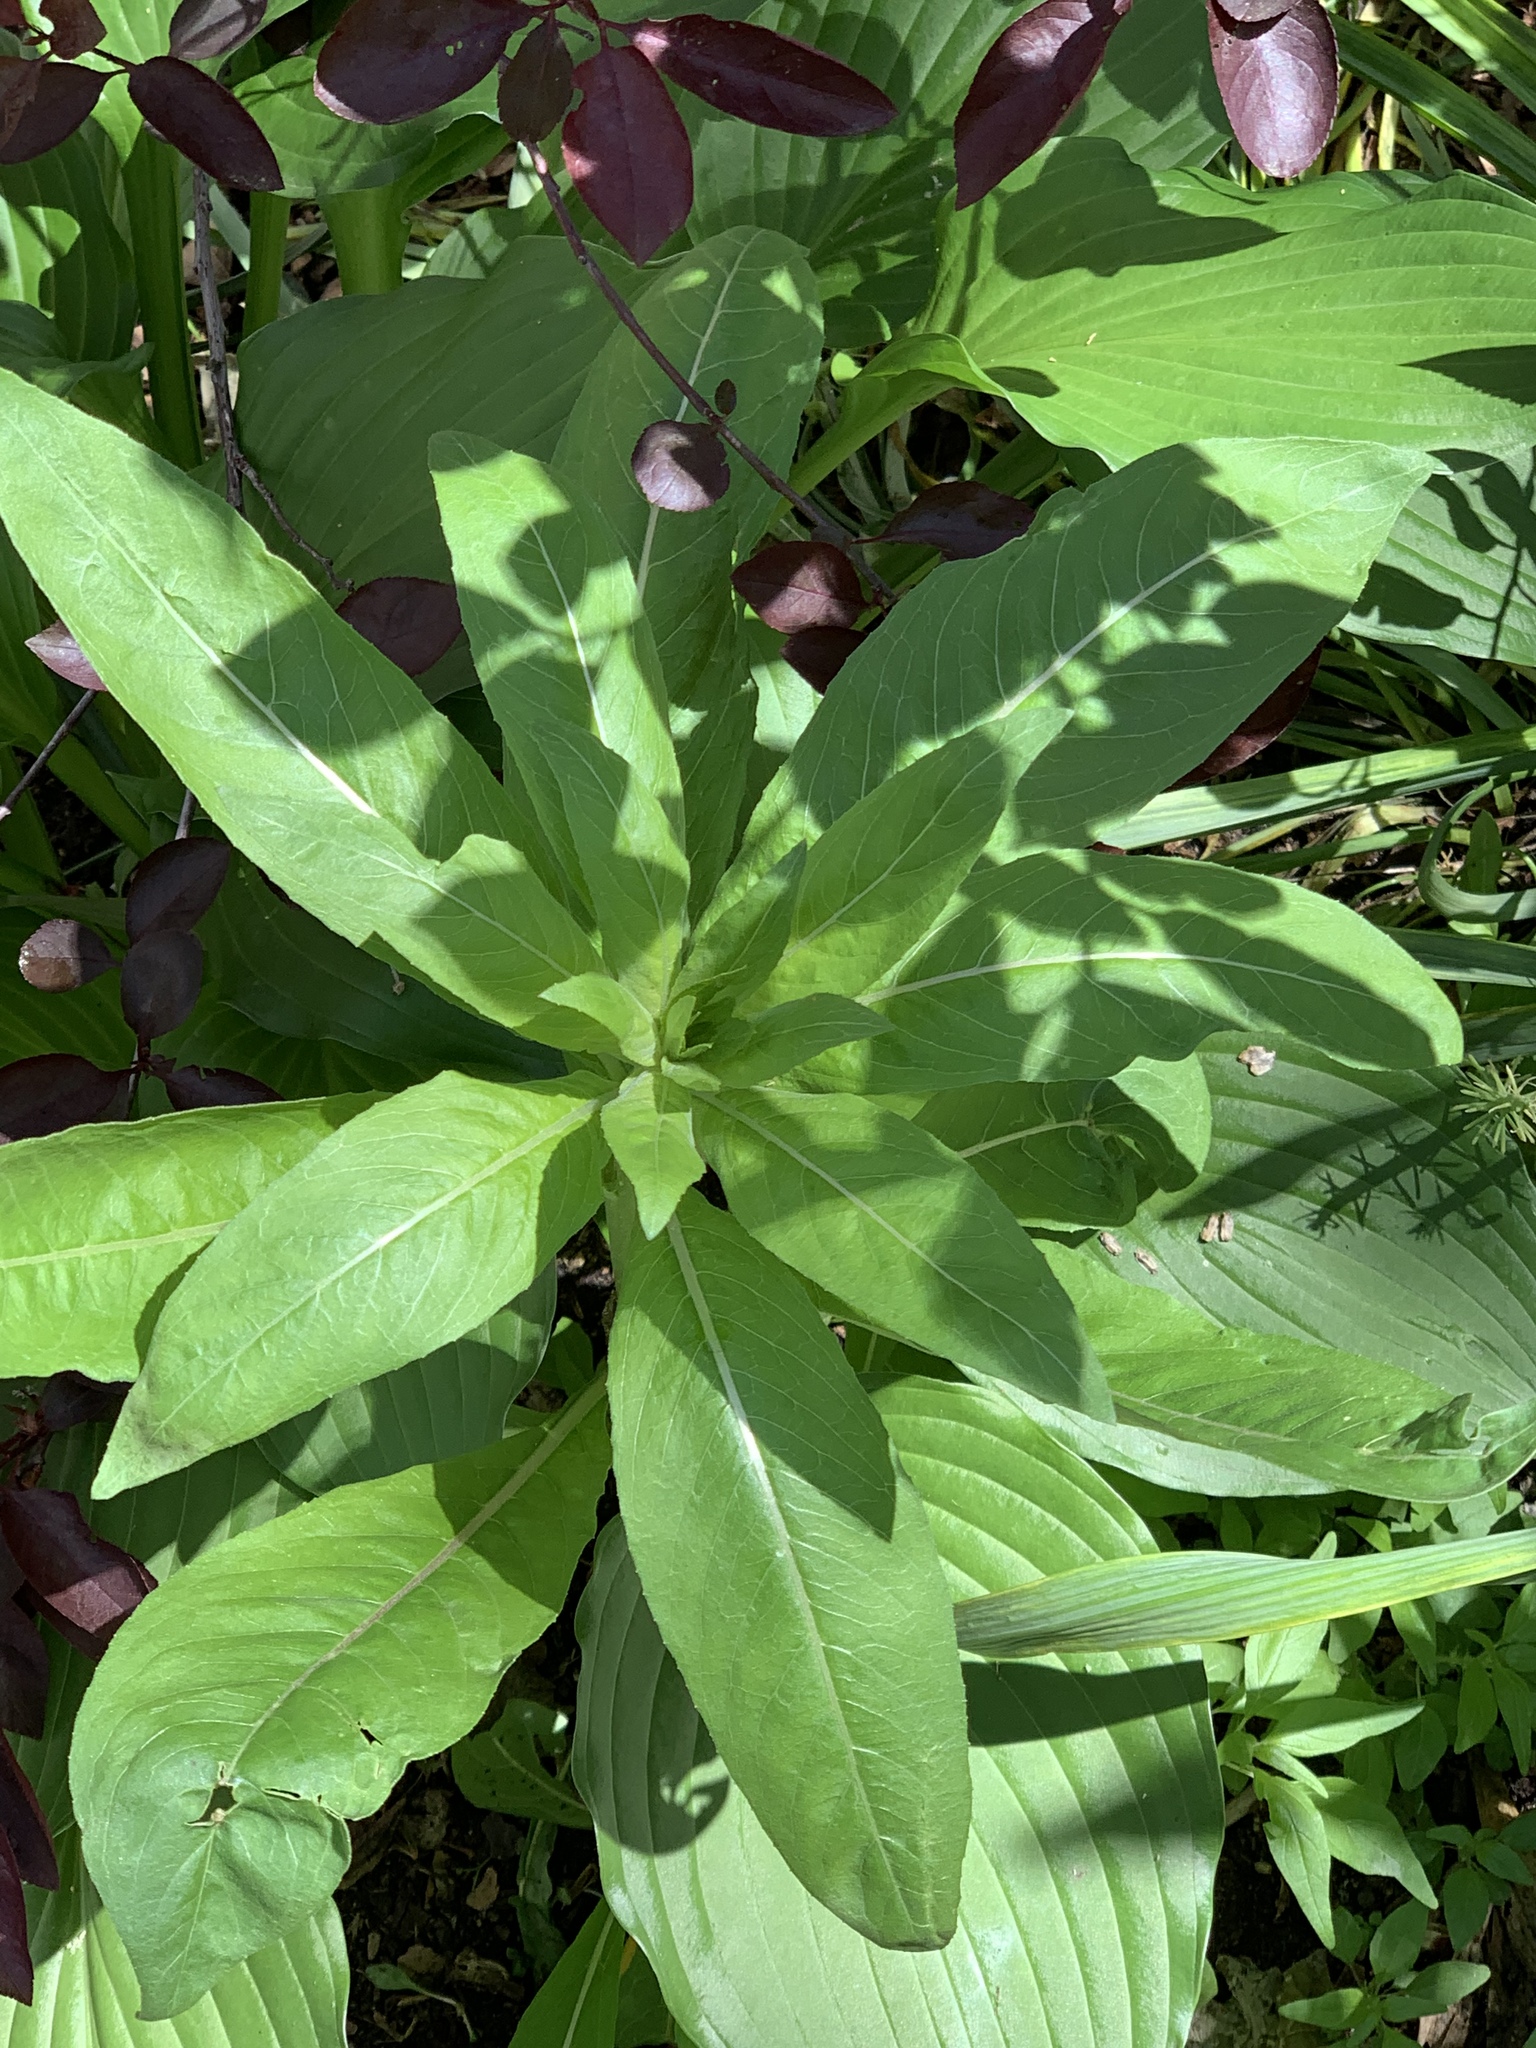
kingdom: Plantae
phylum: Tracheophyta
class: Magnoliopsida
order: Myrtales
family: Onagraceae
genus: Oenothera
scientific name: Oenothera biennis
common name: Common evening-primrose
